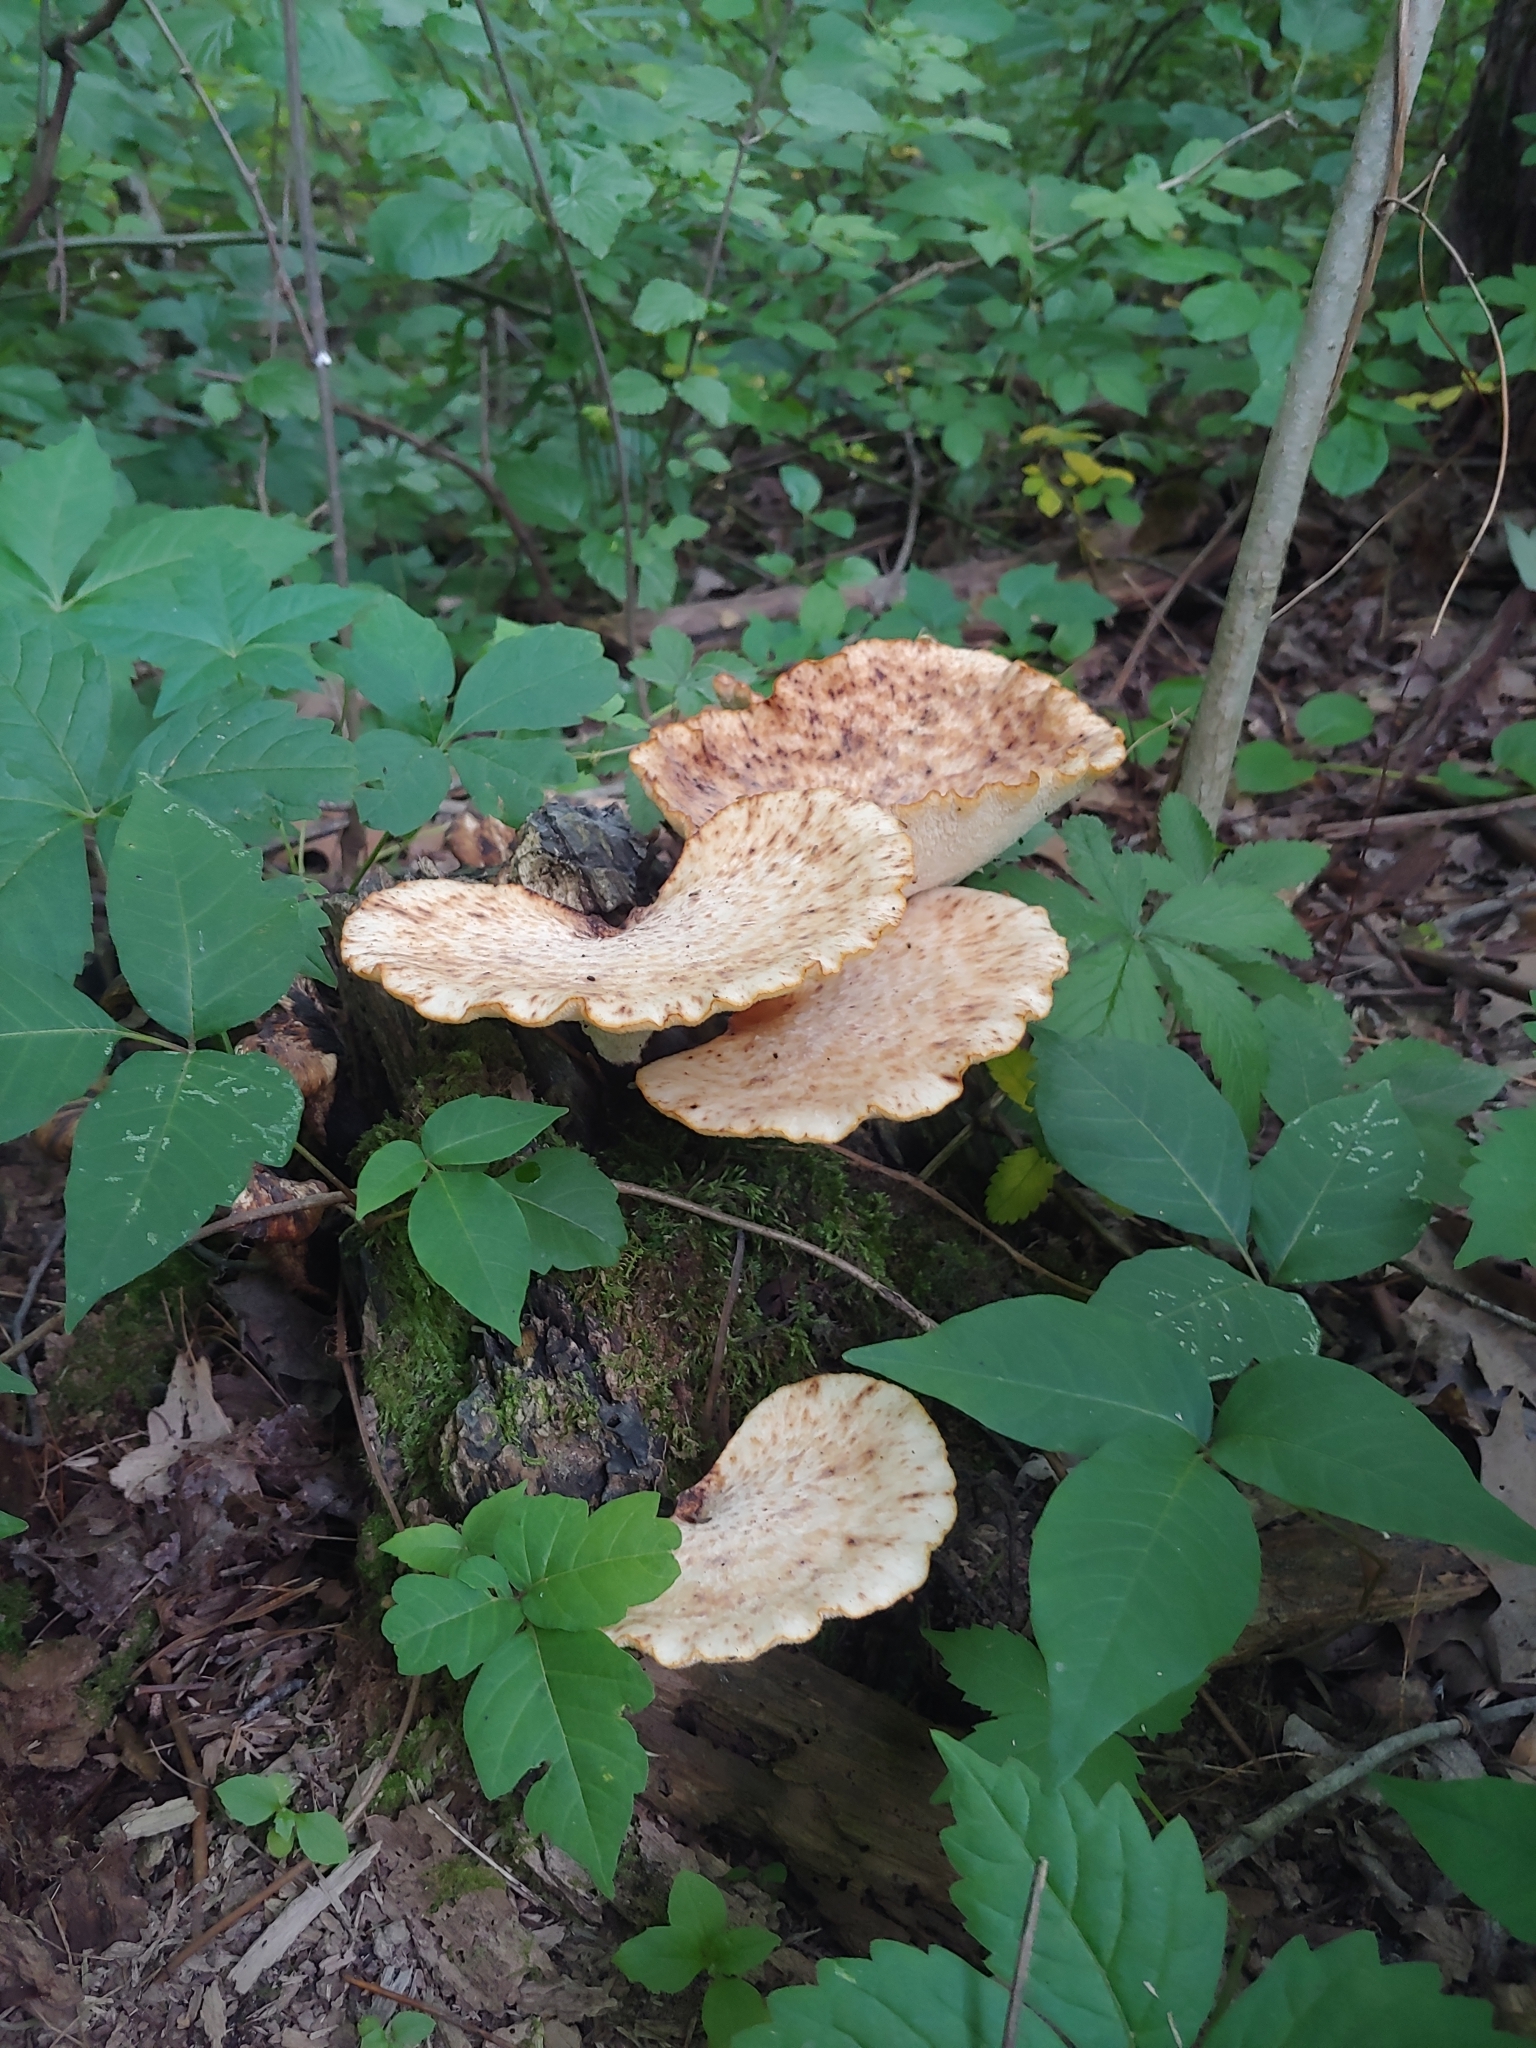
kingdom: Fungi
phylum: Basidiomycota
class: Agaricomycetes
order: Polyporales
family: Polyporaceae
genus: Cerioporus
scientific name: Cerioporus squamosus
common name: Dryad's saddle
